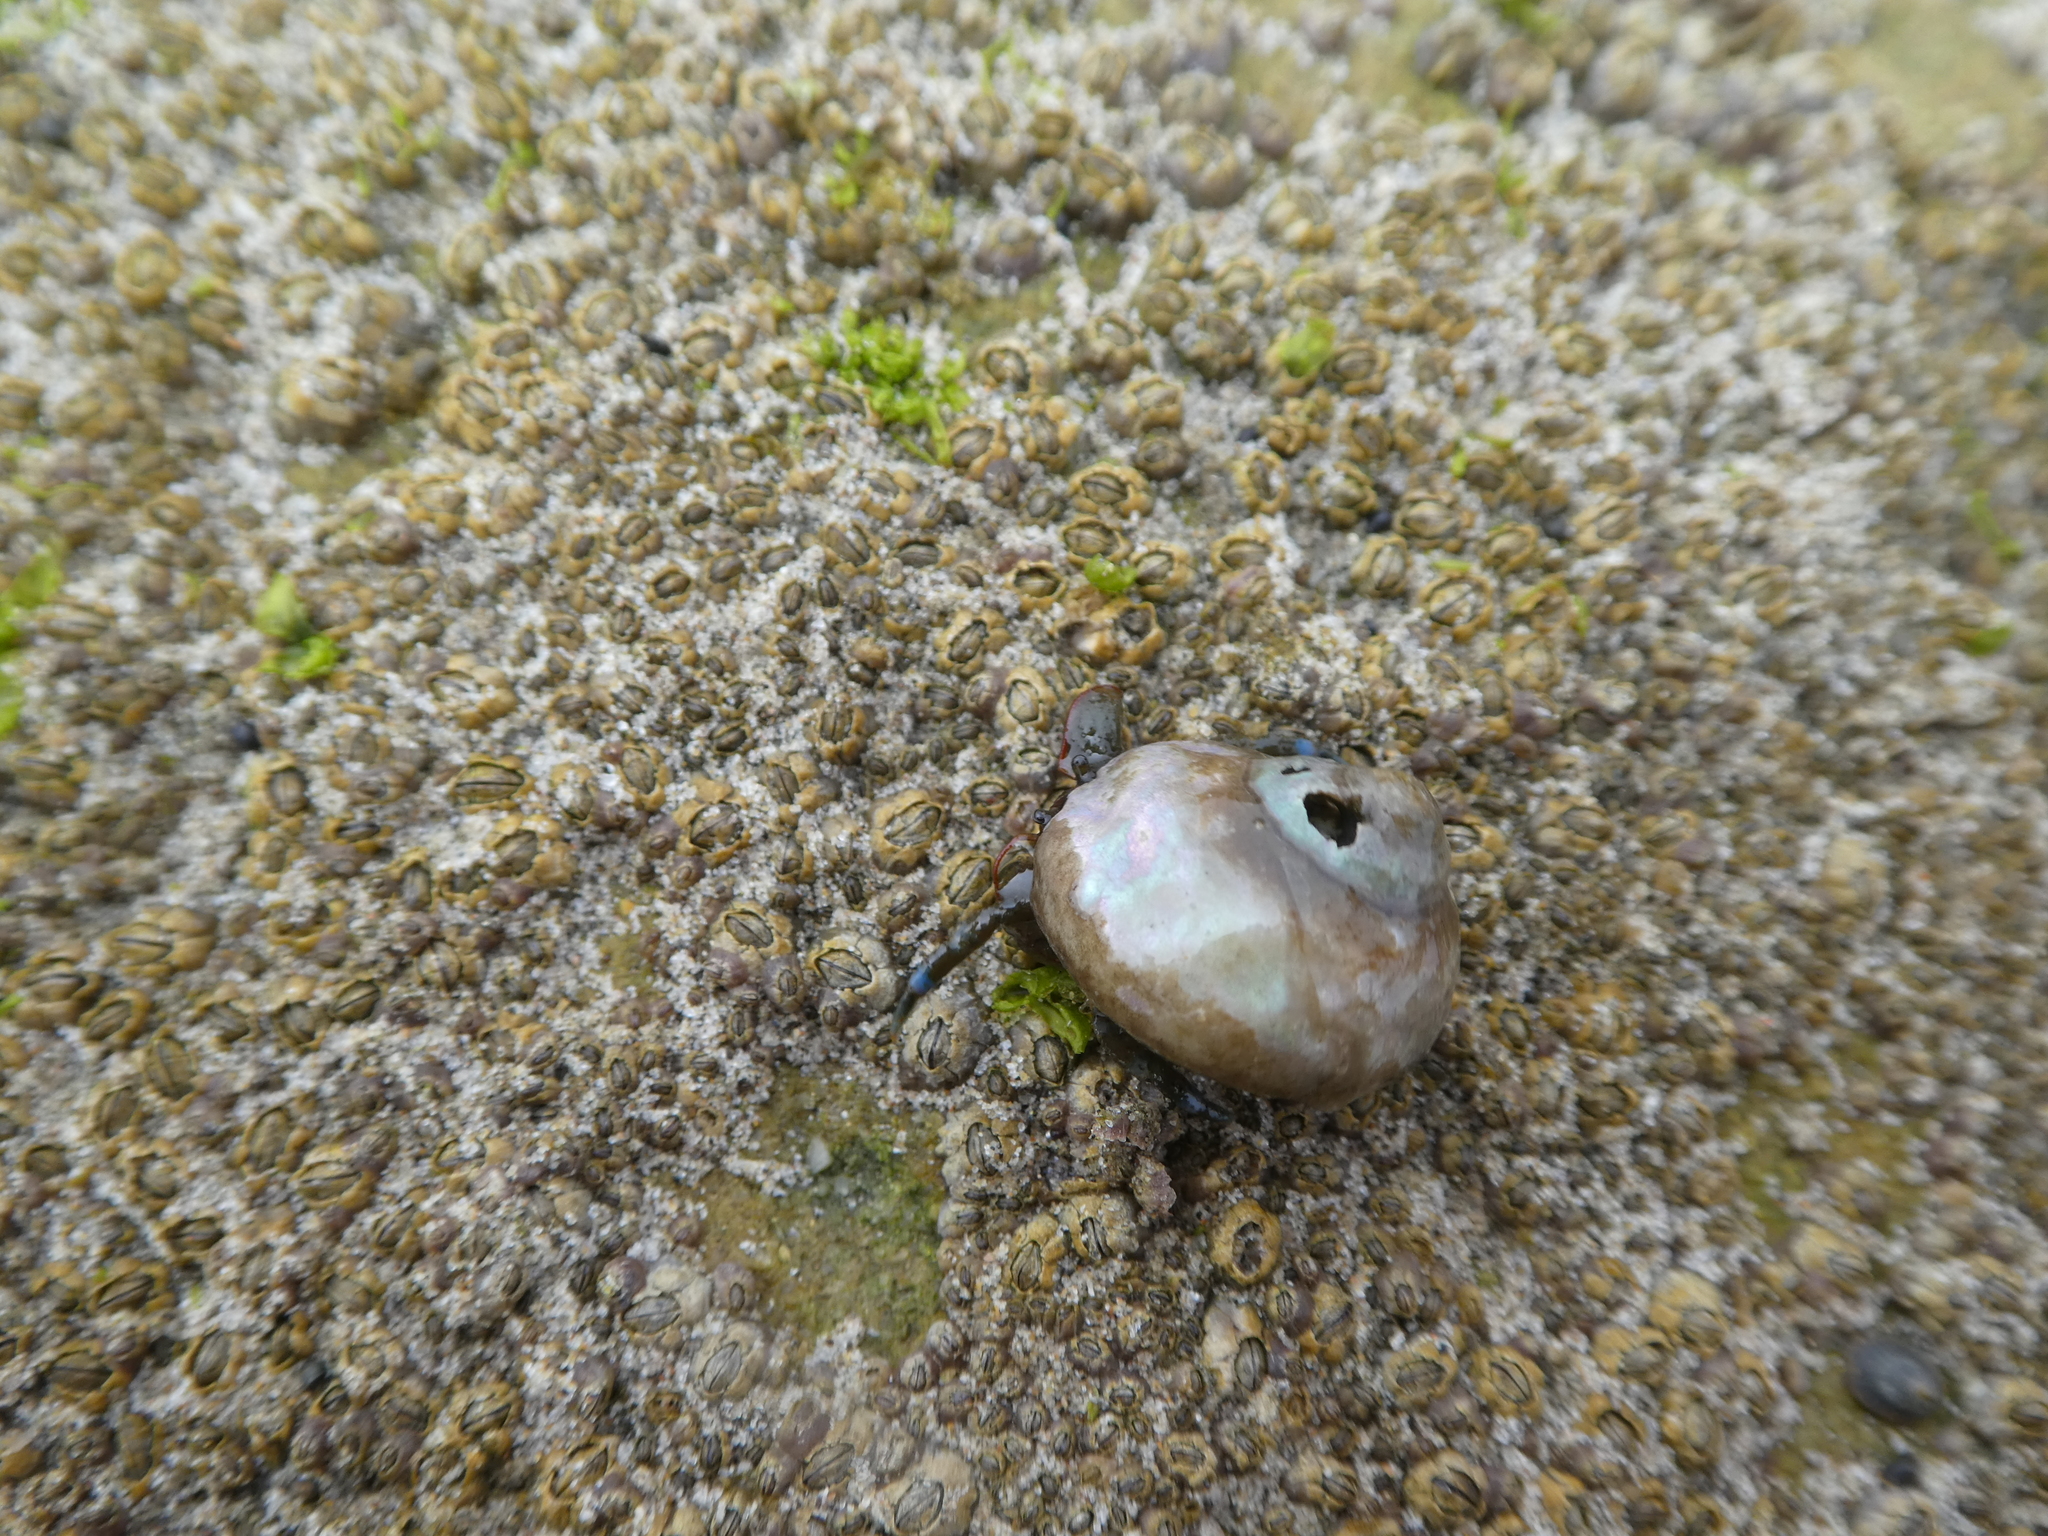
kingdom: Animalia
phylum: Arthropoda
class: Malacostraca
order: Decapoda
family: Paguridae
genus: Pagurus
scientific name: Pagurus samuelis
